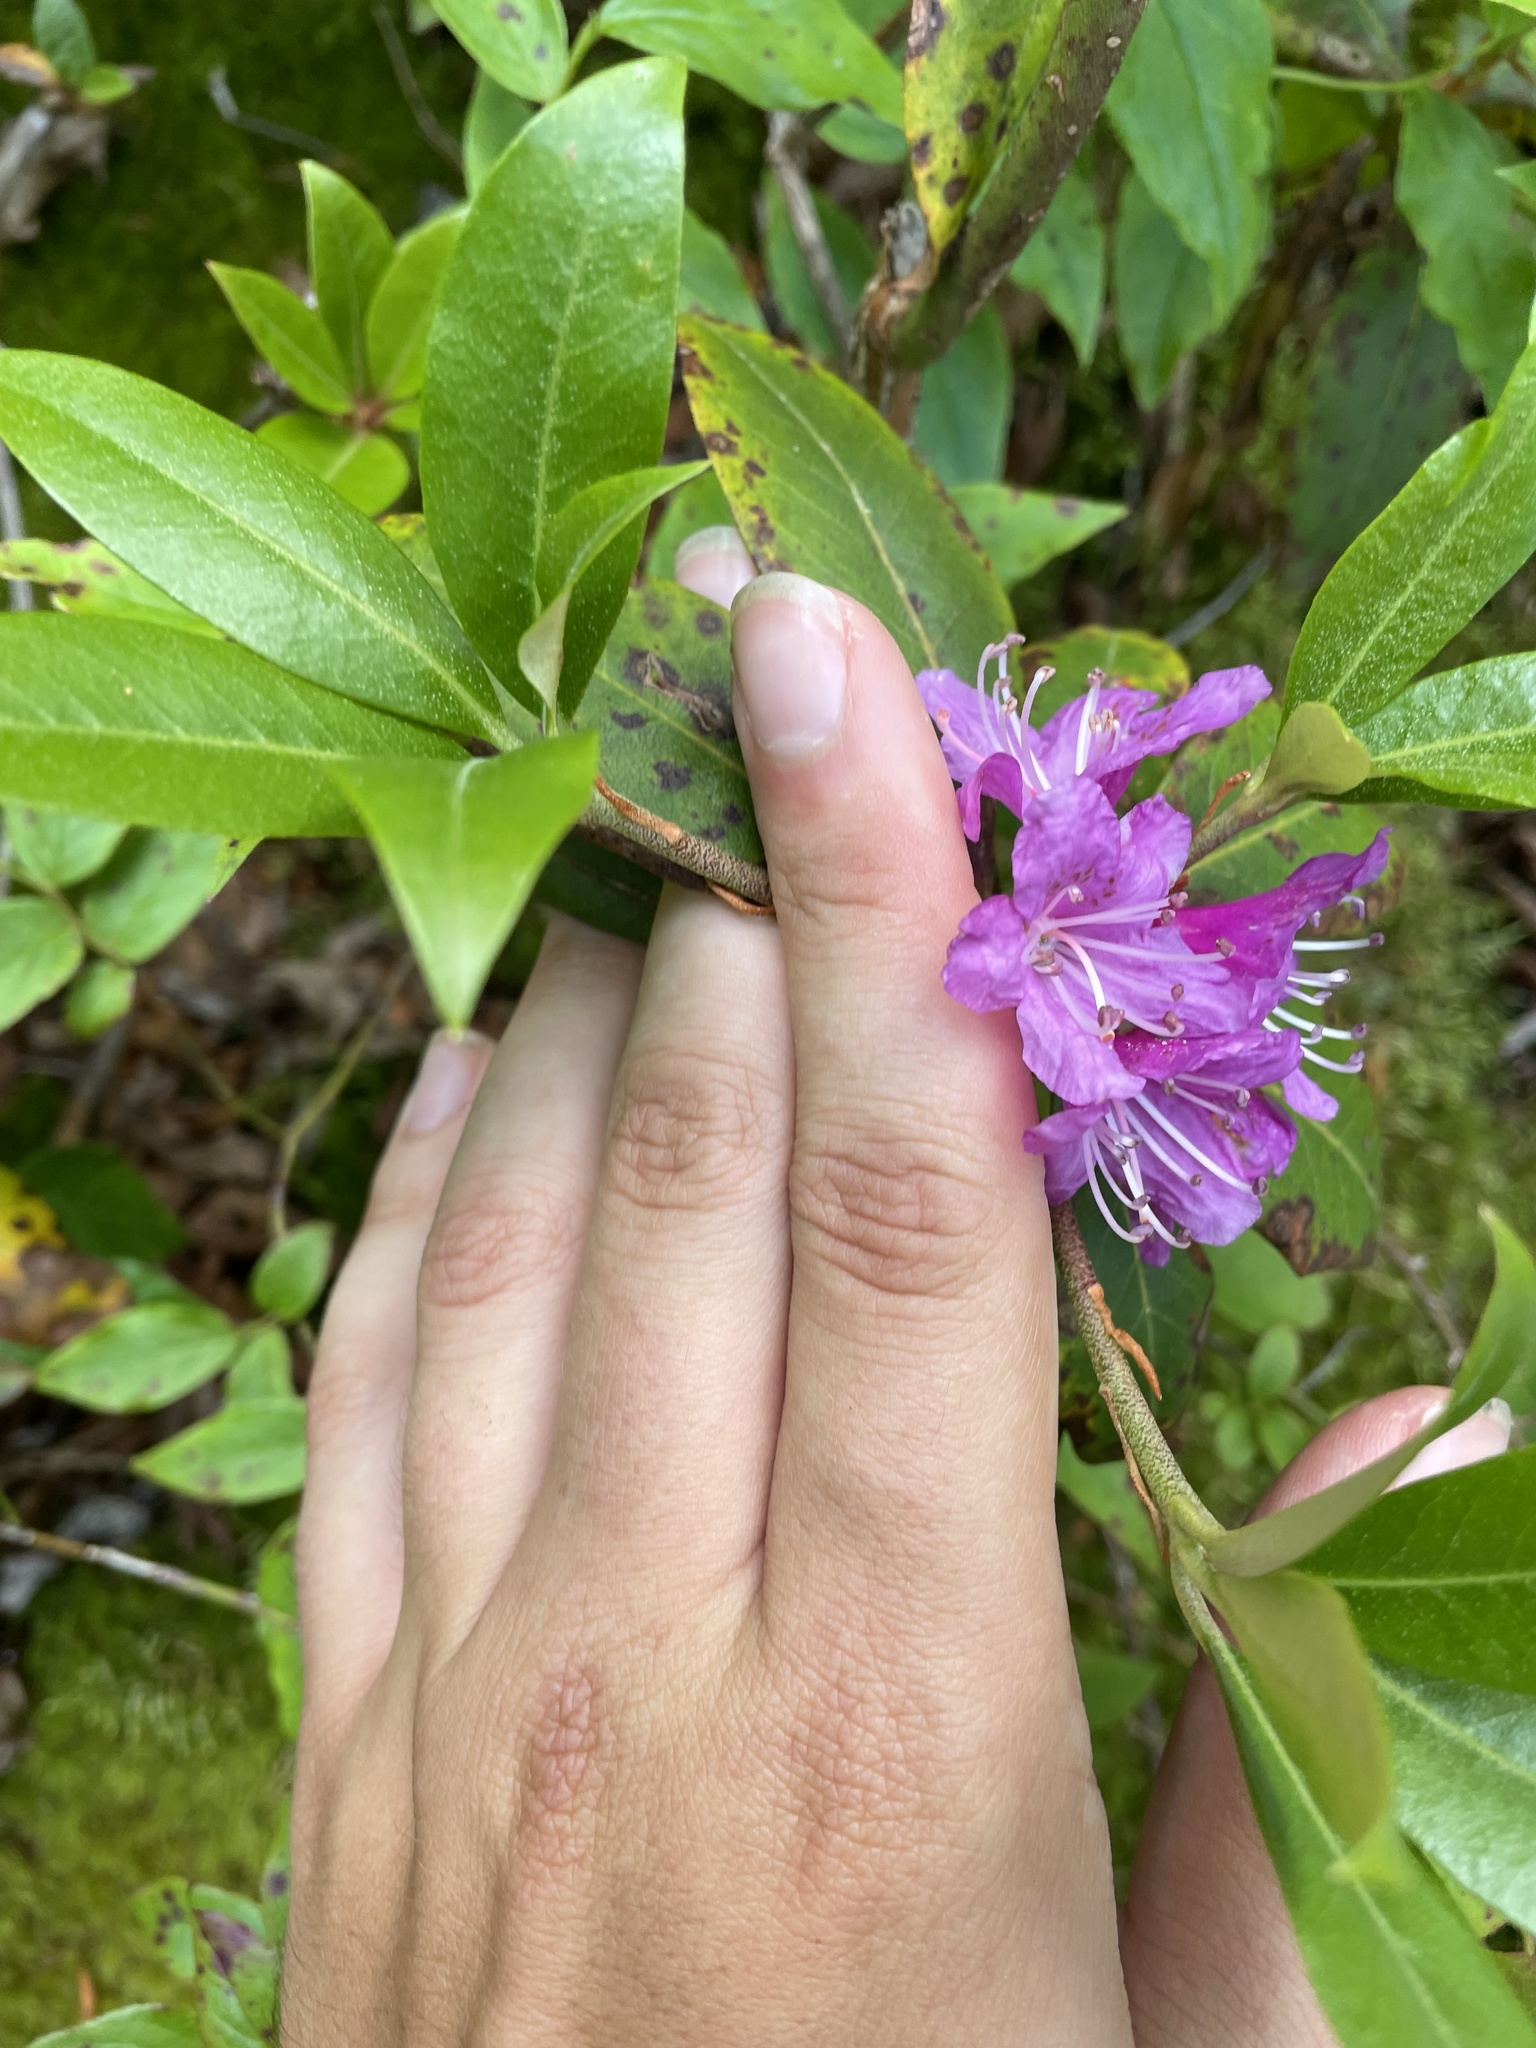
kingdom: Plantae
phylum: Tracheophyta
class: Magnoliopsida
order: Ericales
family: Ericaceae
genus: Rhododendron
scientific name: Rhododendron smokianum
